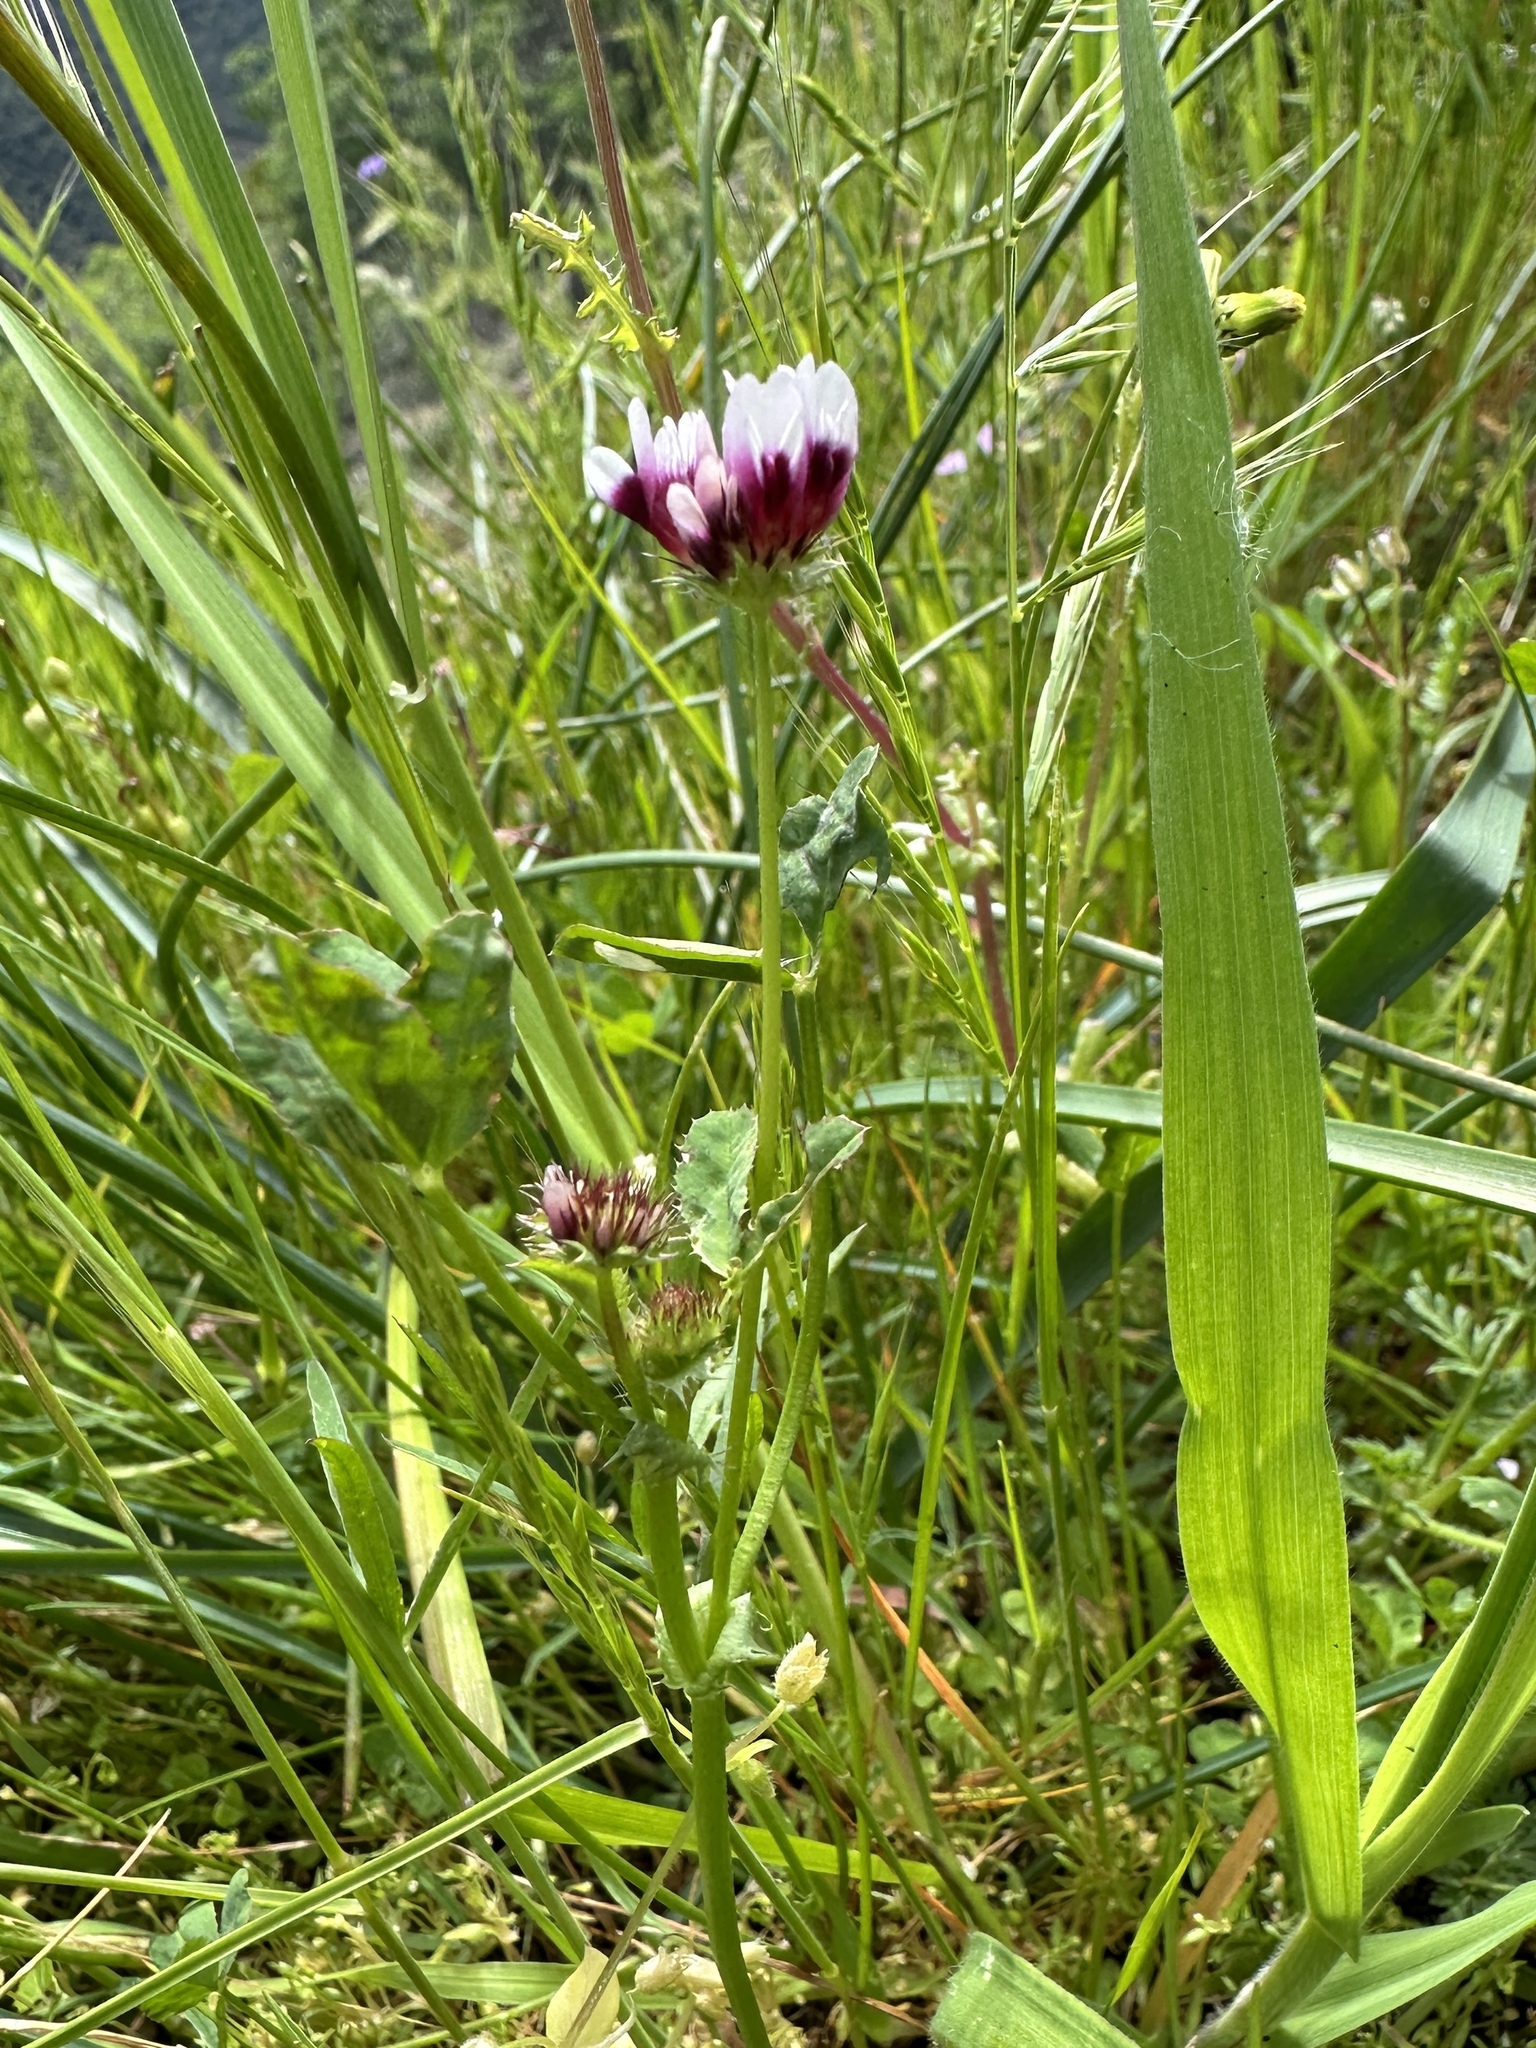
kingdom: Plantae
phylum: Tracheophyta
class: Magnoliopsida
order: Fabales
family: Fabaceae
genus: Trifolium
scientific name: Trifolium variegatum
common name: Whitetip clover
